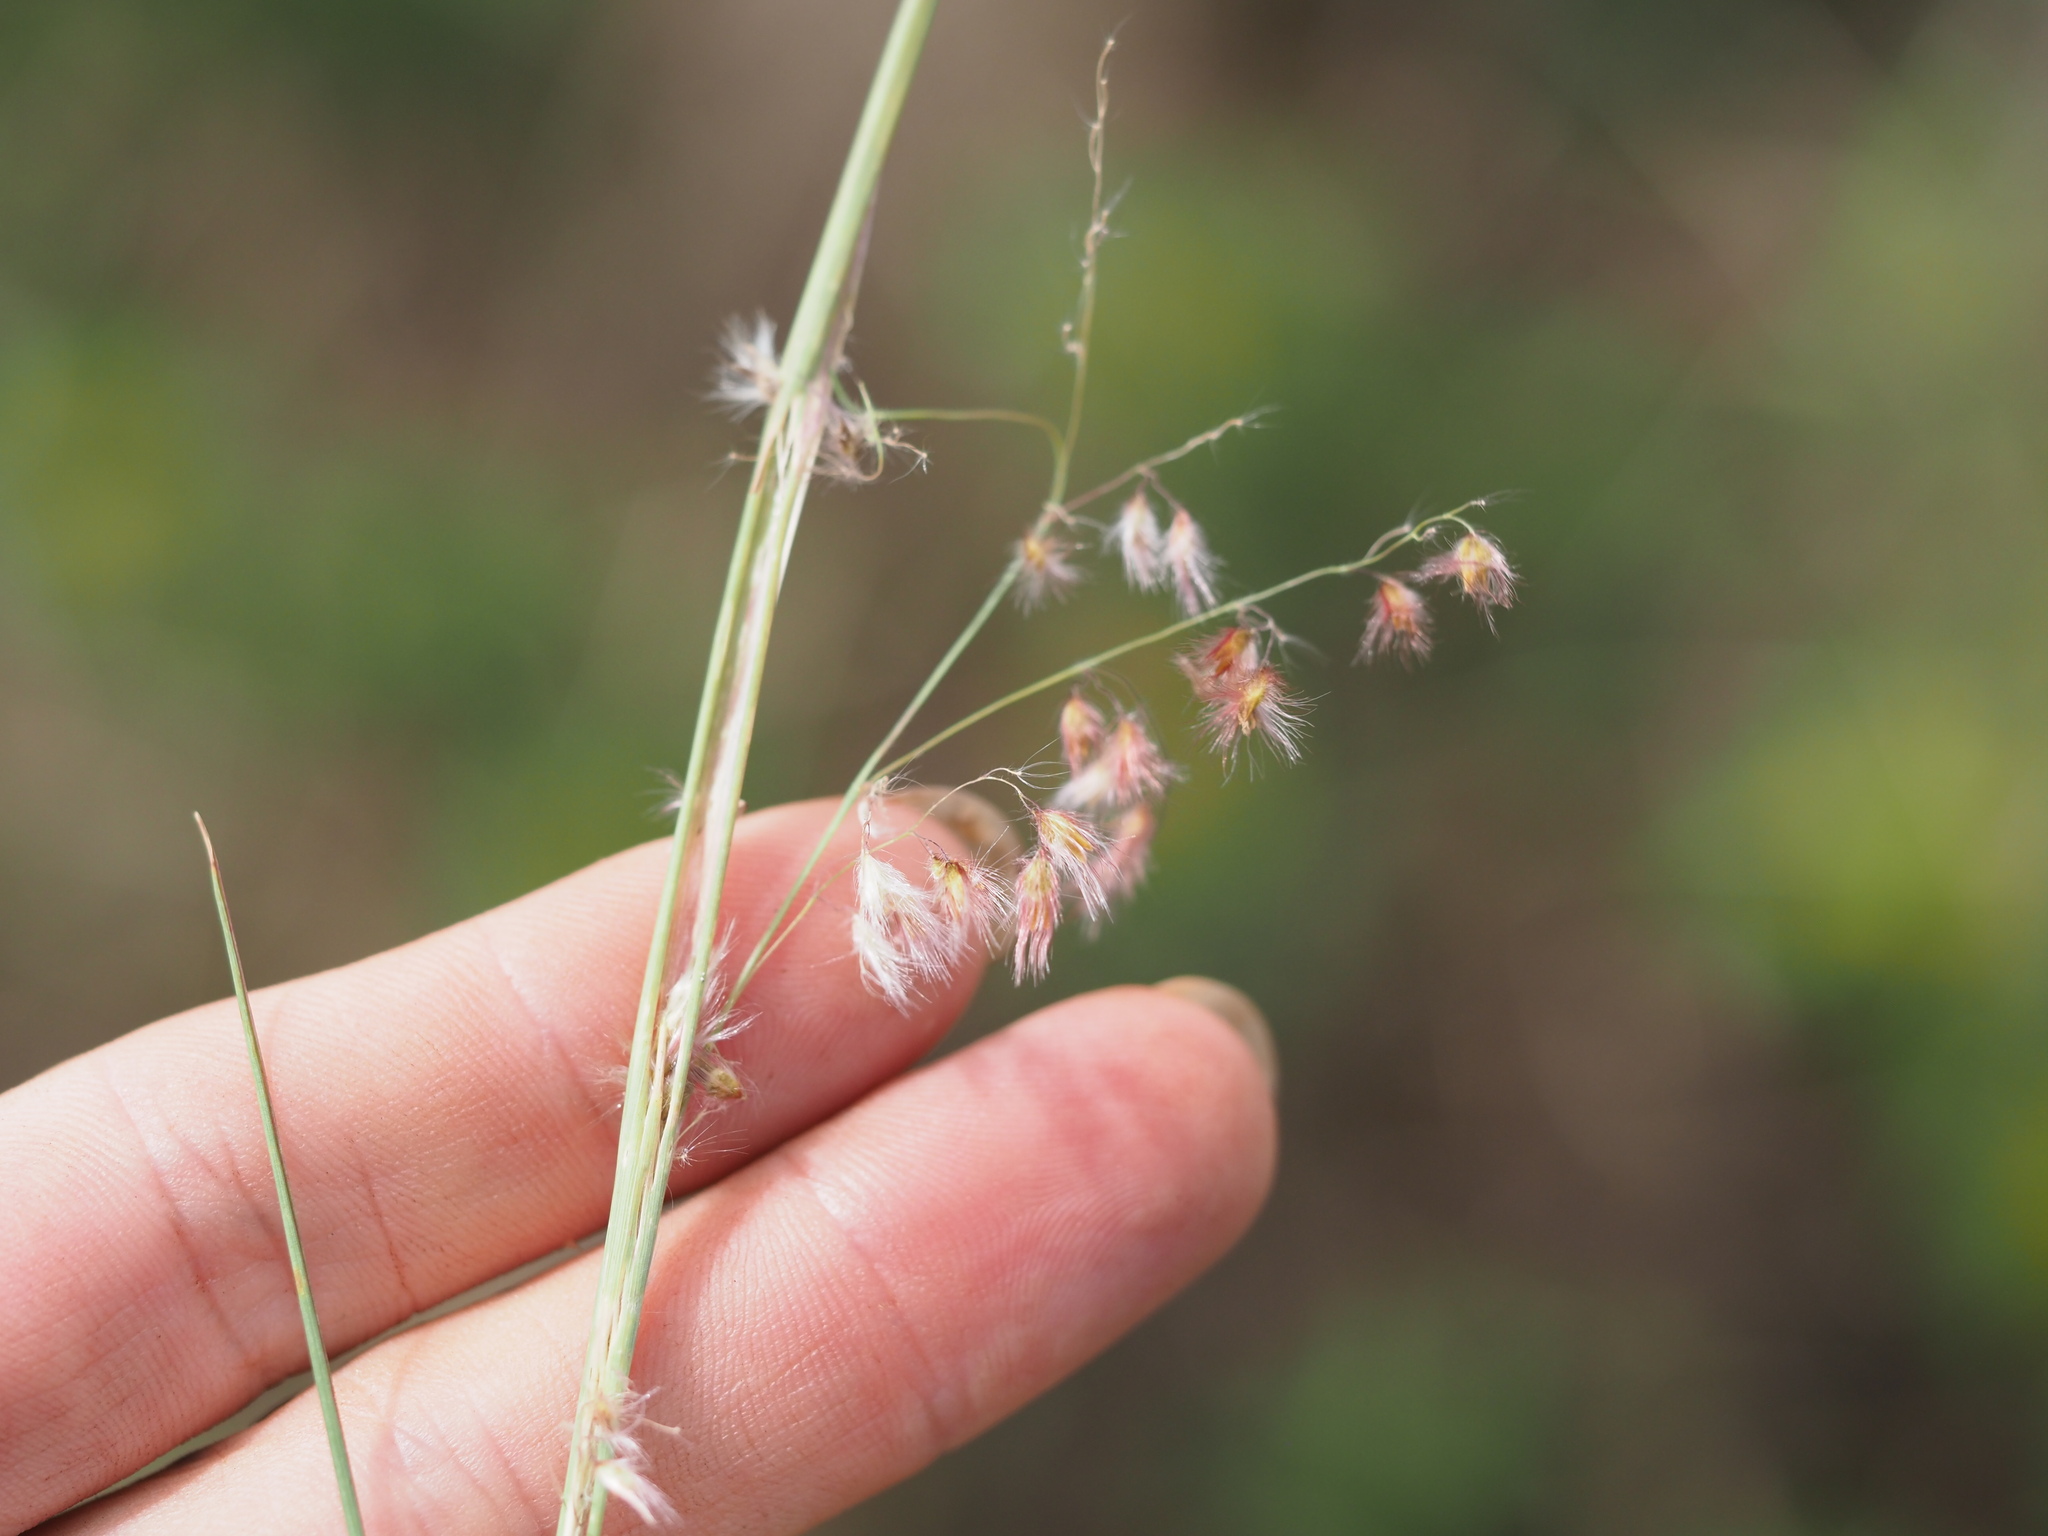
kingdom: Plantae
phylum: Tracheophyta
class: Liliopsida
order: Poales
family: Poaceae
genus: Melinis
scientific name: Melinis repens
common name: Rose natal grass
